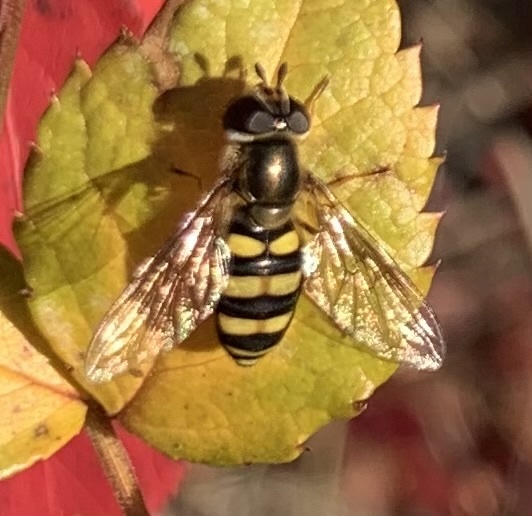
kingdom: Animalia
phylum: Arthropoda
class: Insecta
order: Diptera
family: Syrphidae
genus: Eupeodes
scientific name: Eupeodes
